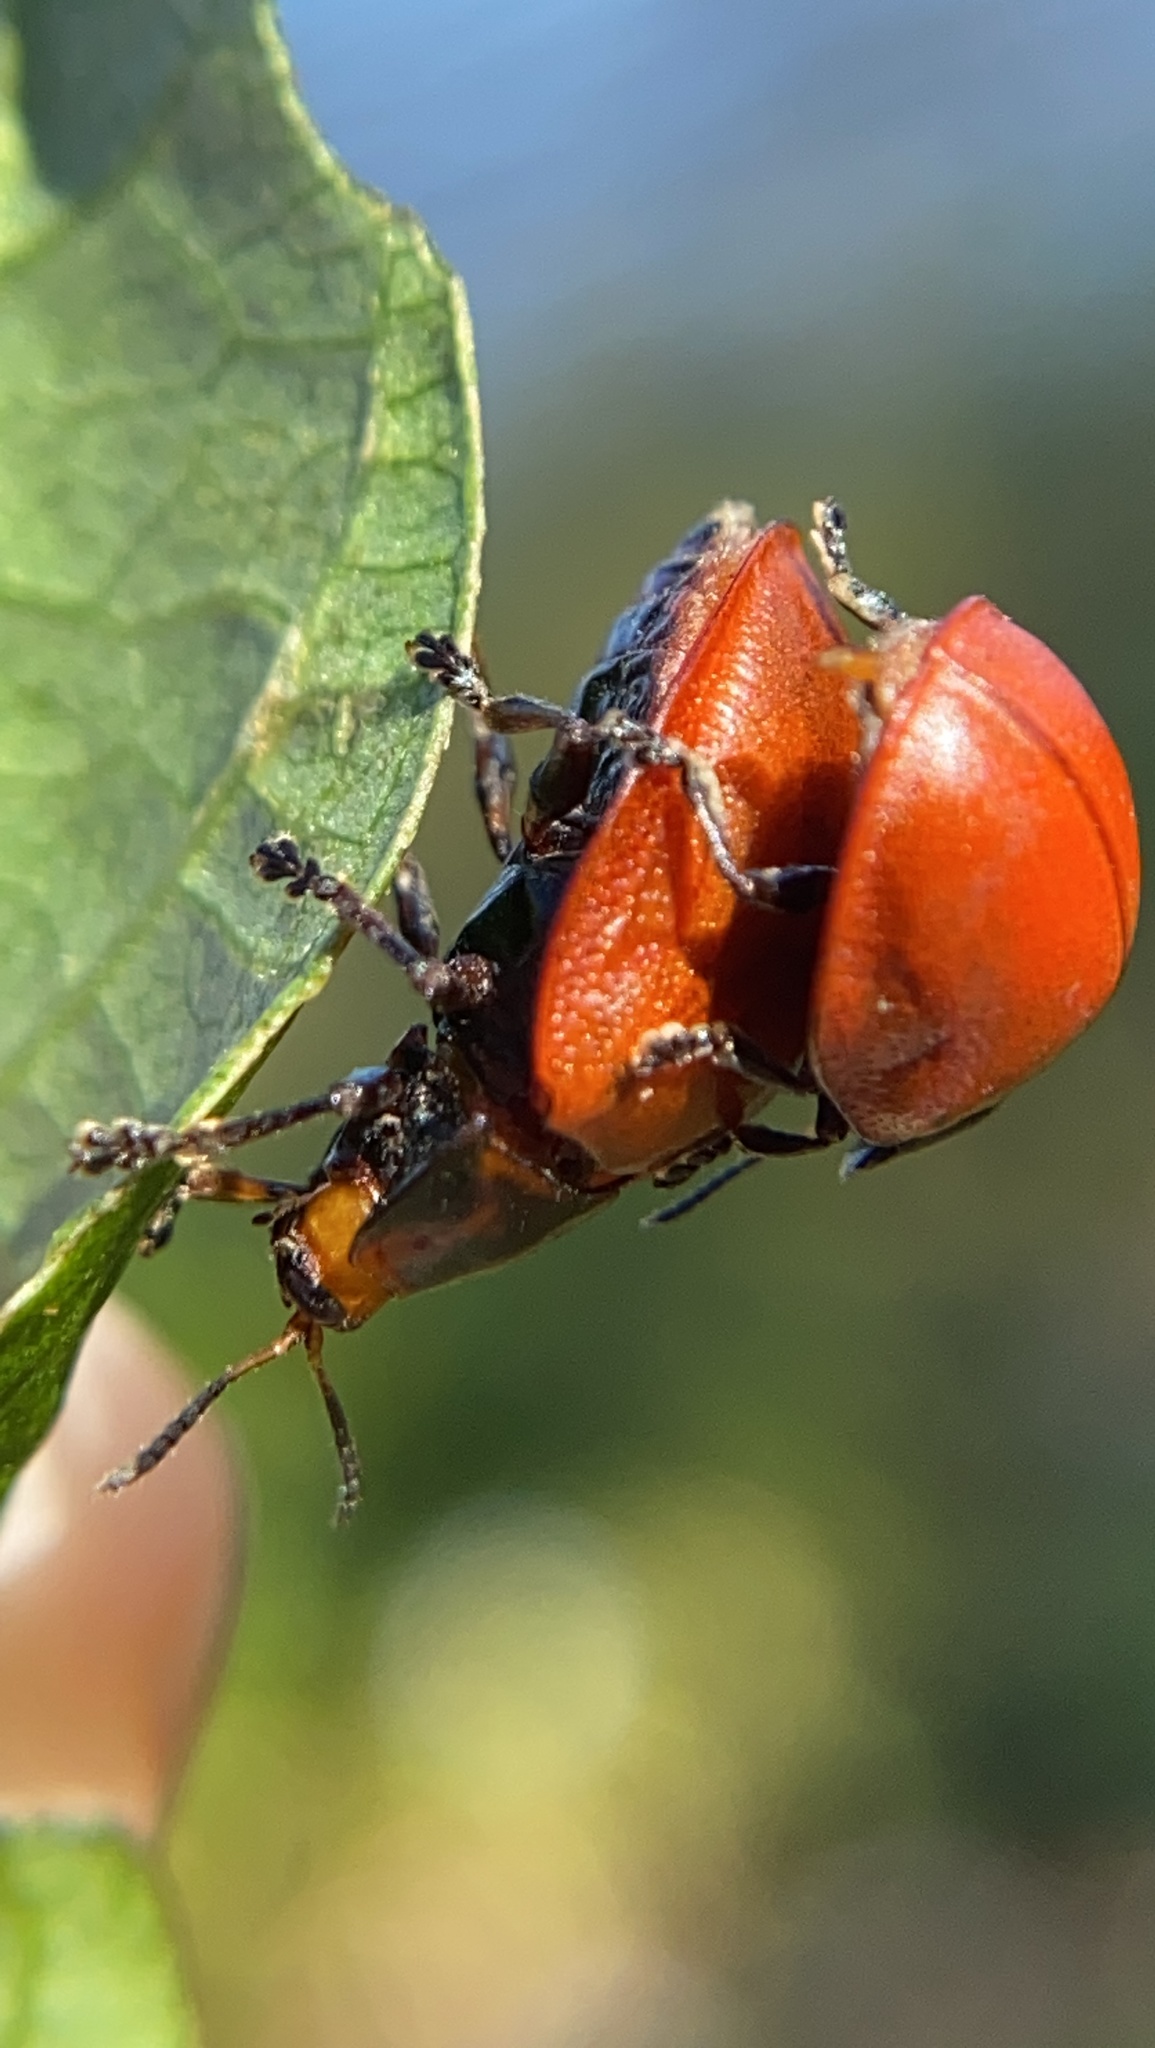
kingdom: Animalia
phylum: Arthropoda
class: Insecta
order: Coleoptera
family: Chrysomelidae
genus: Chelymorpha
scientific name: Chelymorpha cribraria
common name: Tortoise beetle
